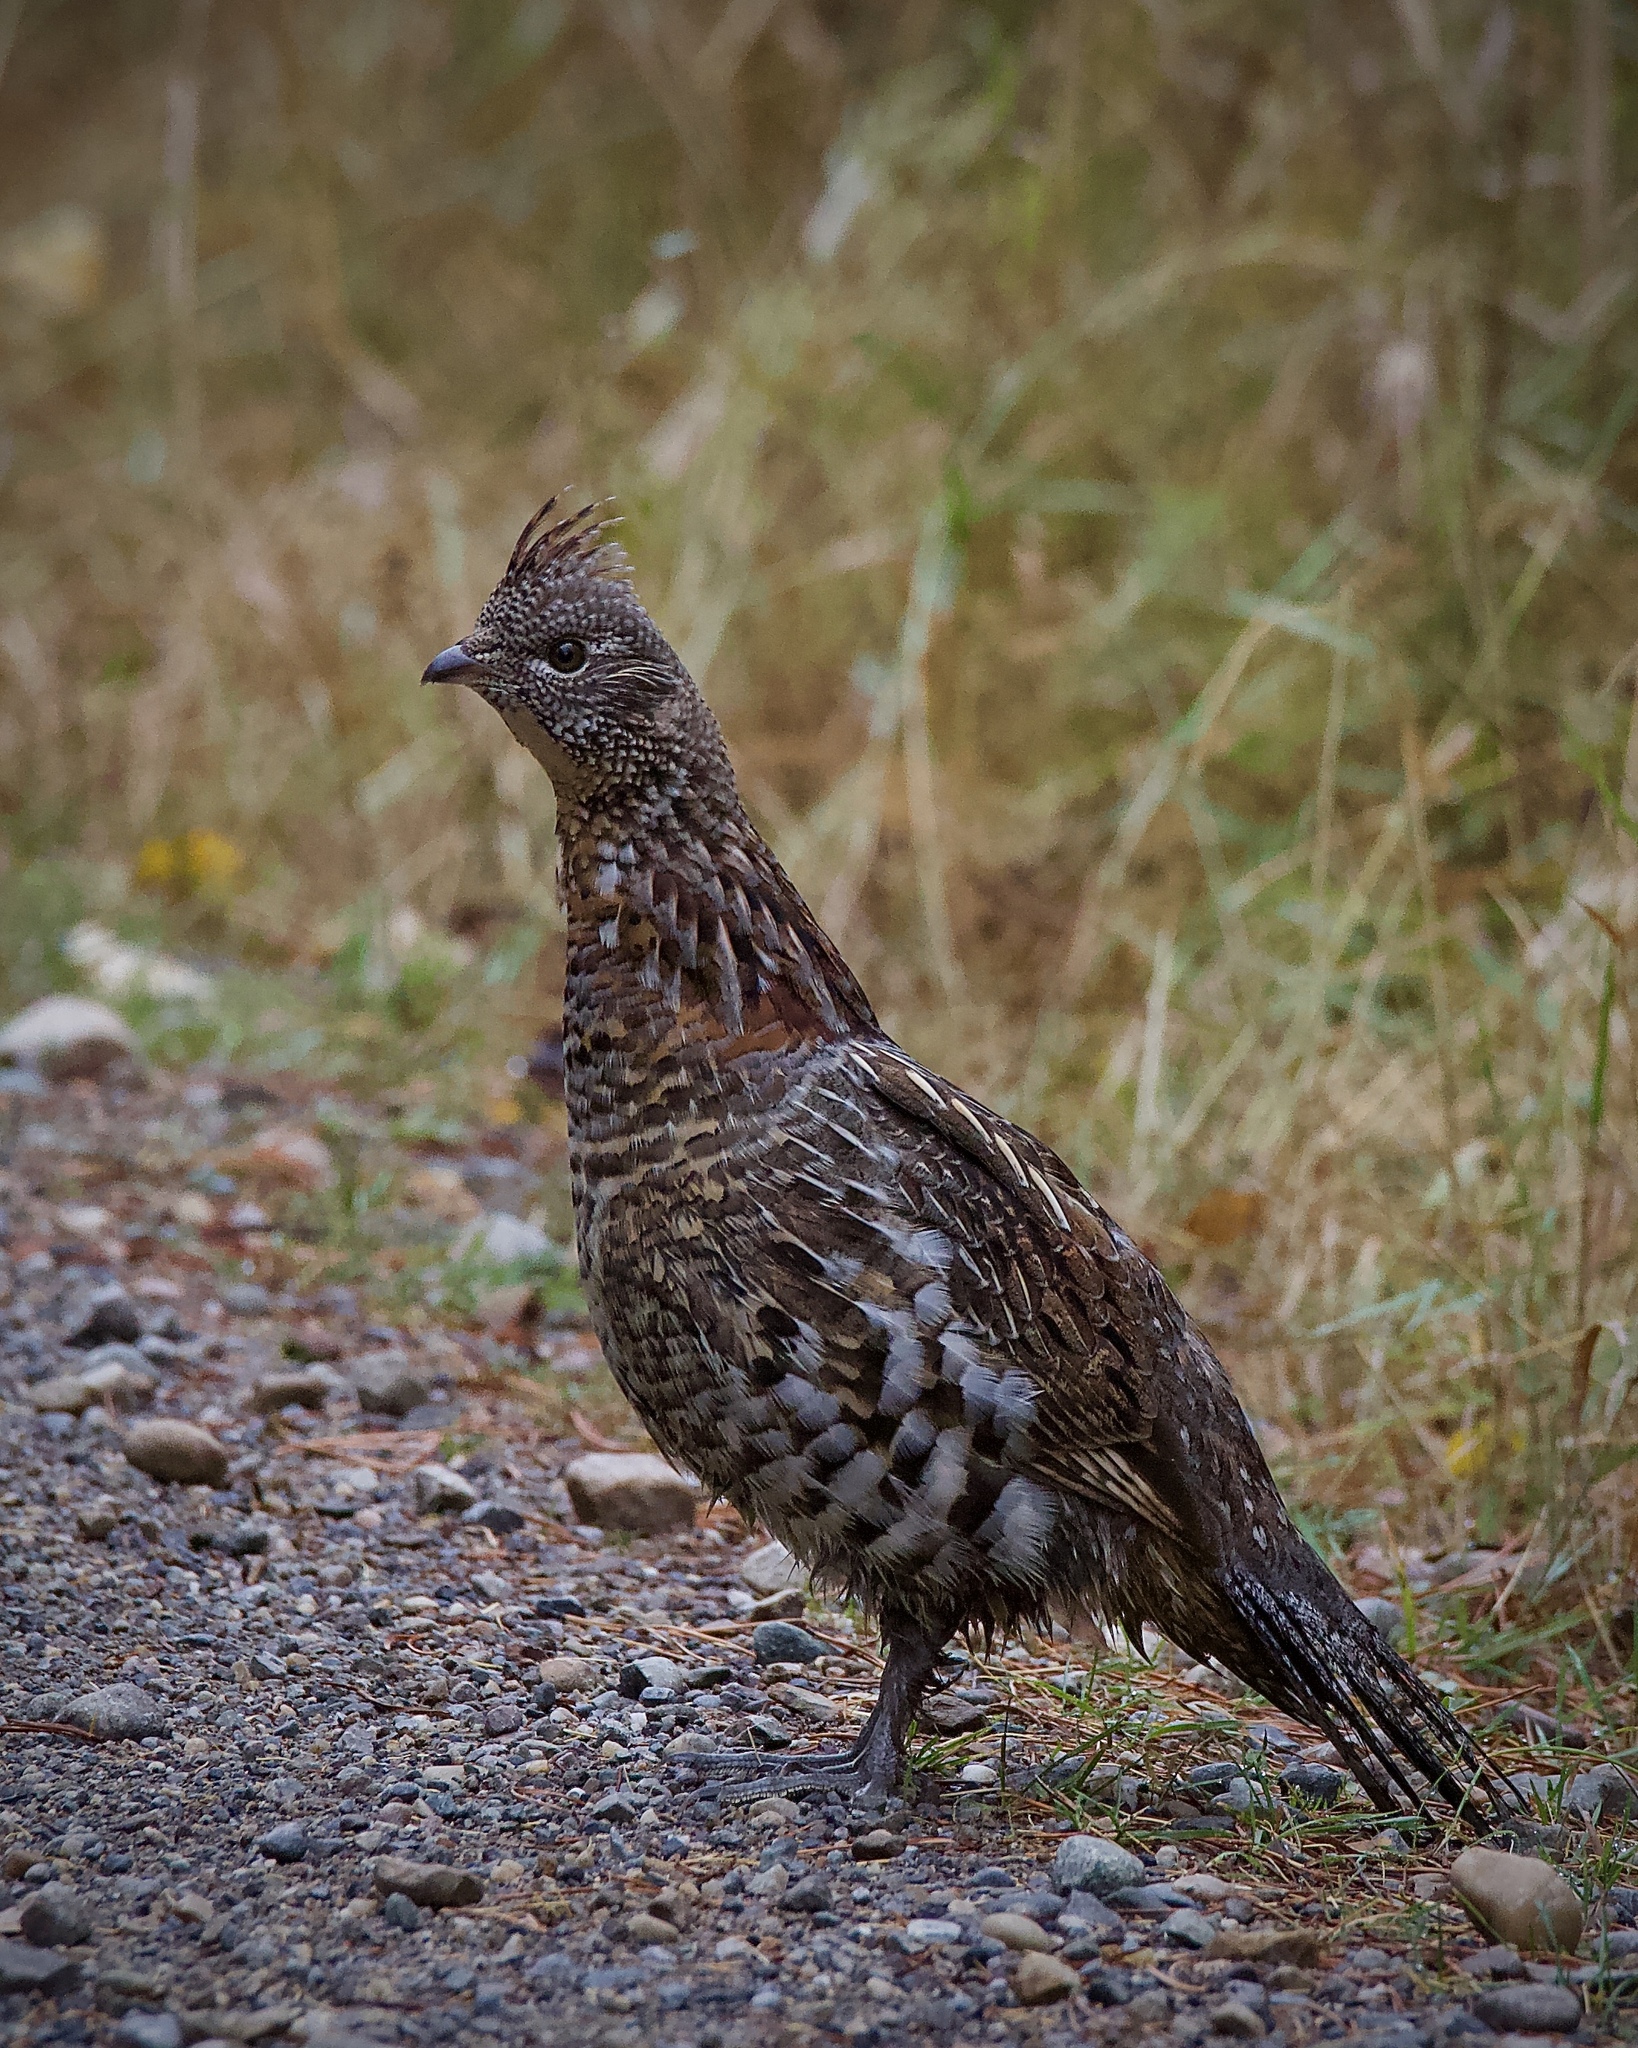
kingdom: Animalia
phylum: Chordata
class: Aves
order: Galliformes
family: Phasianidae
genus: Bonasa
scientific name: Bonasa umbellus
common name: Ruffed grouse
